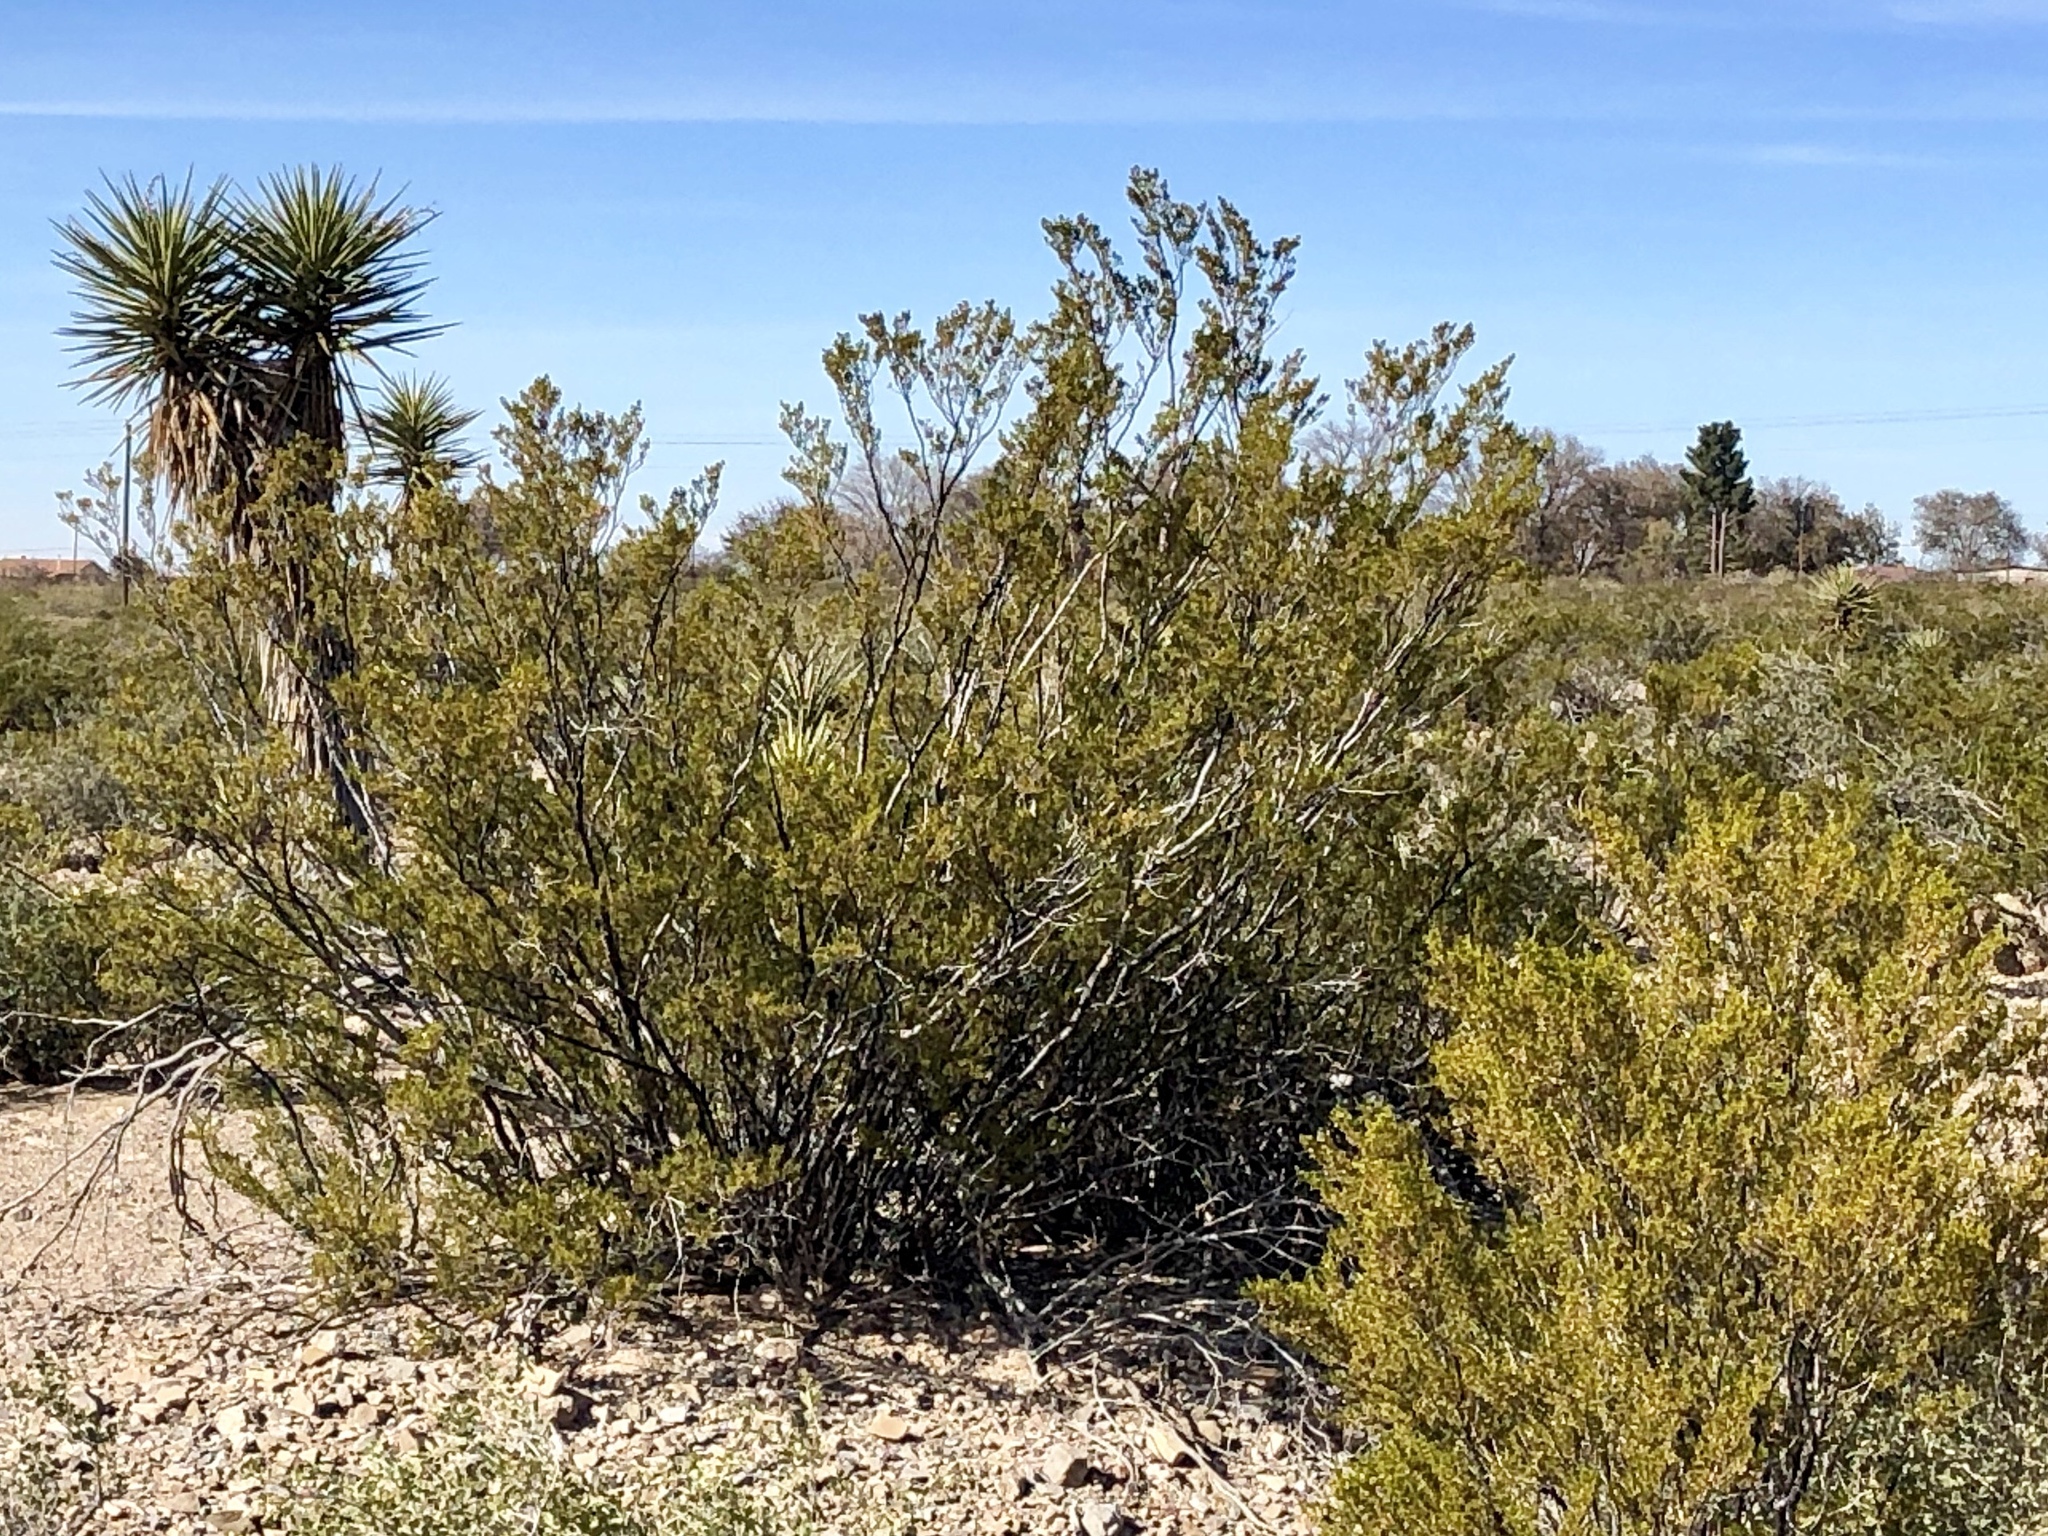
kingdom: Plantae
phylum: Tracheophyta
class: Magnoliopsida
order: Zygophyllales
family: Zygophyllaceae
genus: Larrea
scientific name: Larrea tridentata
